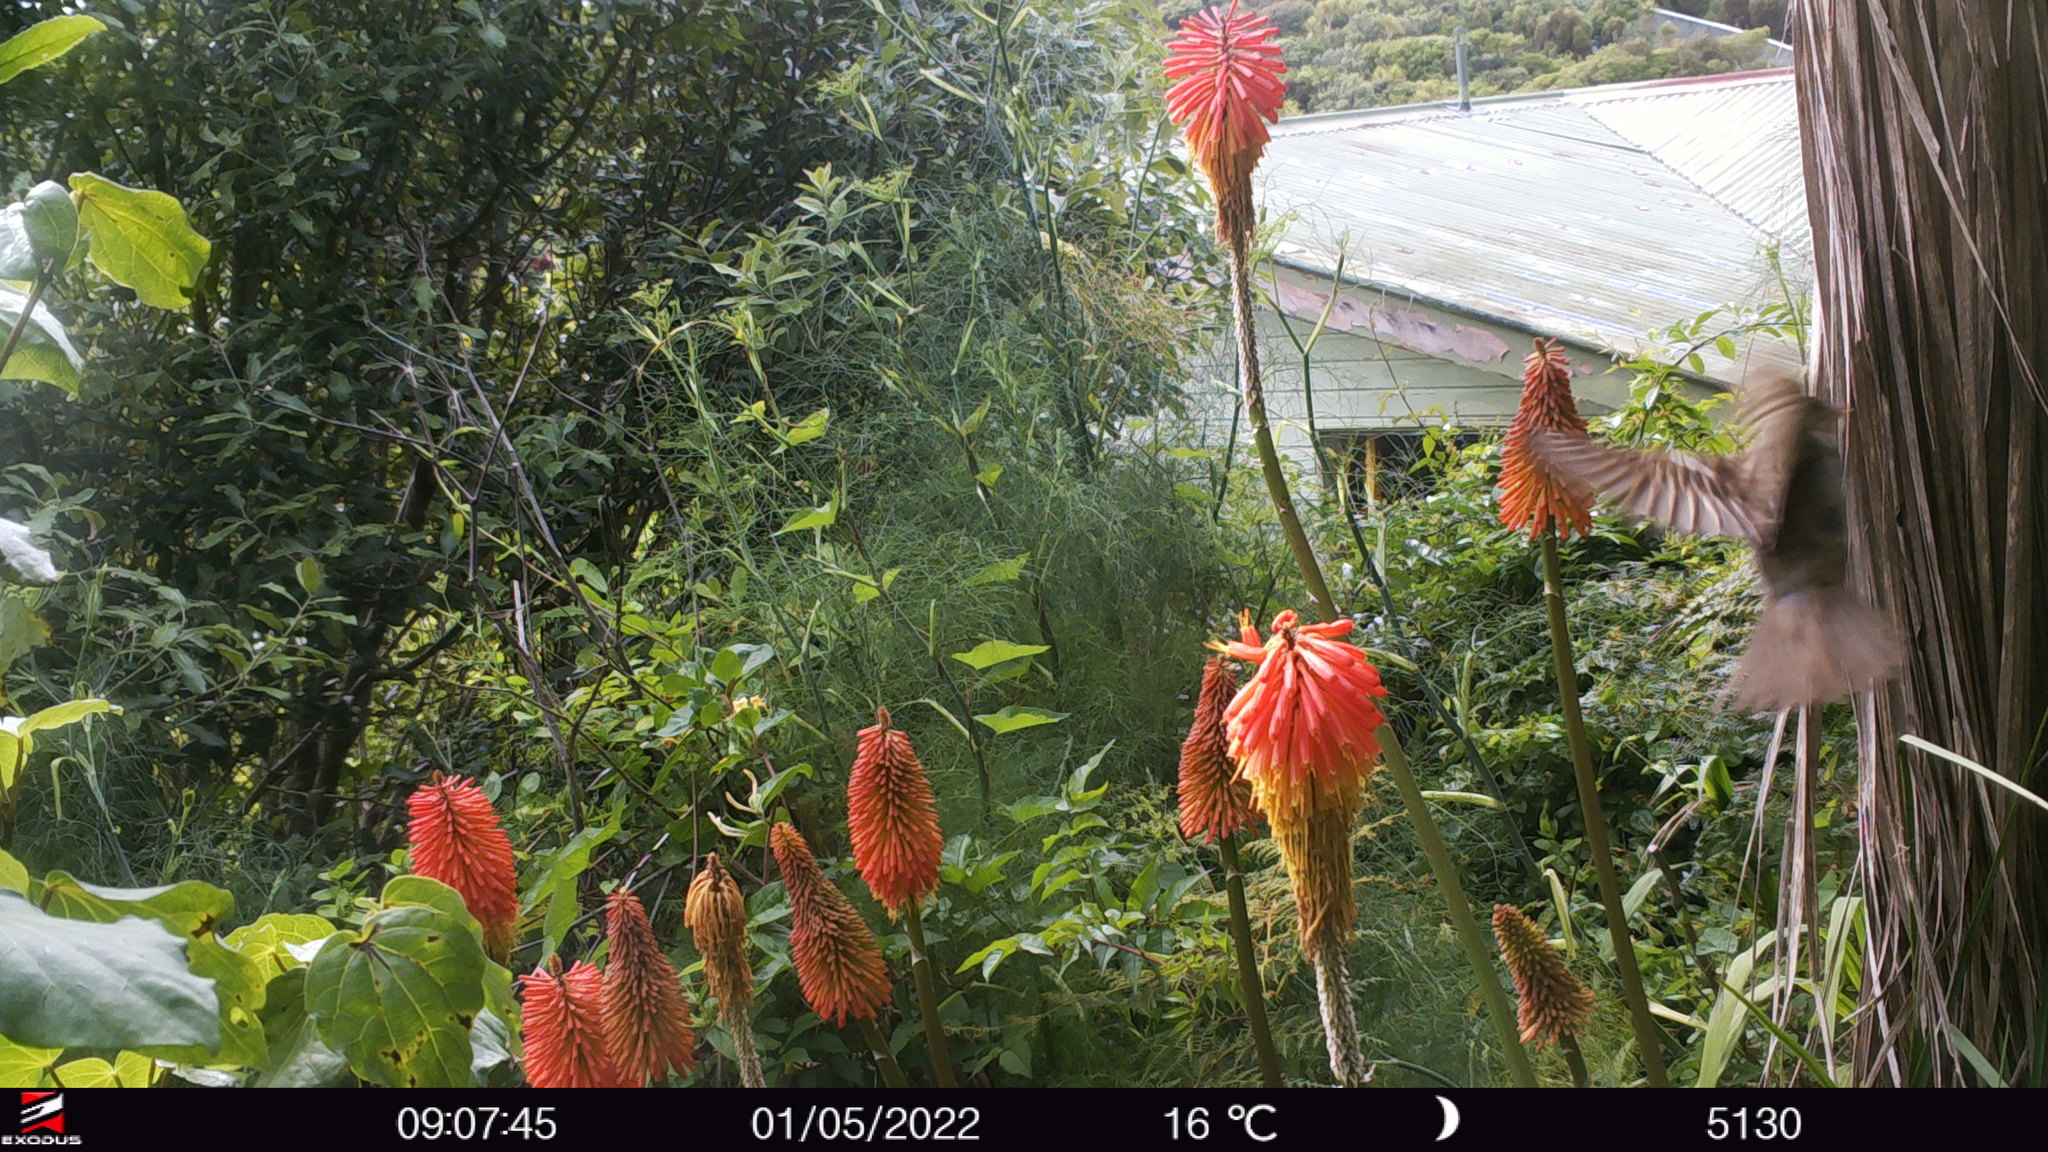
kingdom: Animalia
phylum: Chordata
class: Aves
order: Passeriformes
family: Passeridae
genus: Passer
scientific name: Passer domesticus
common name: House sparrow
